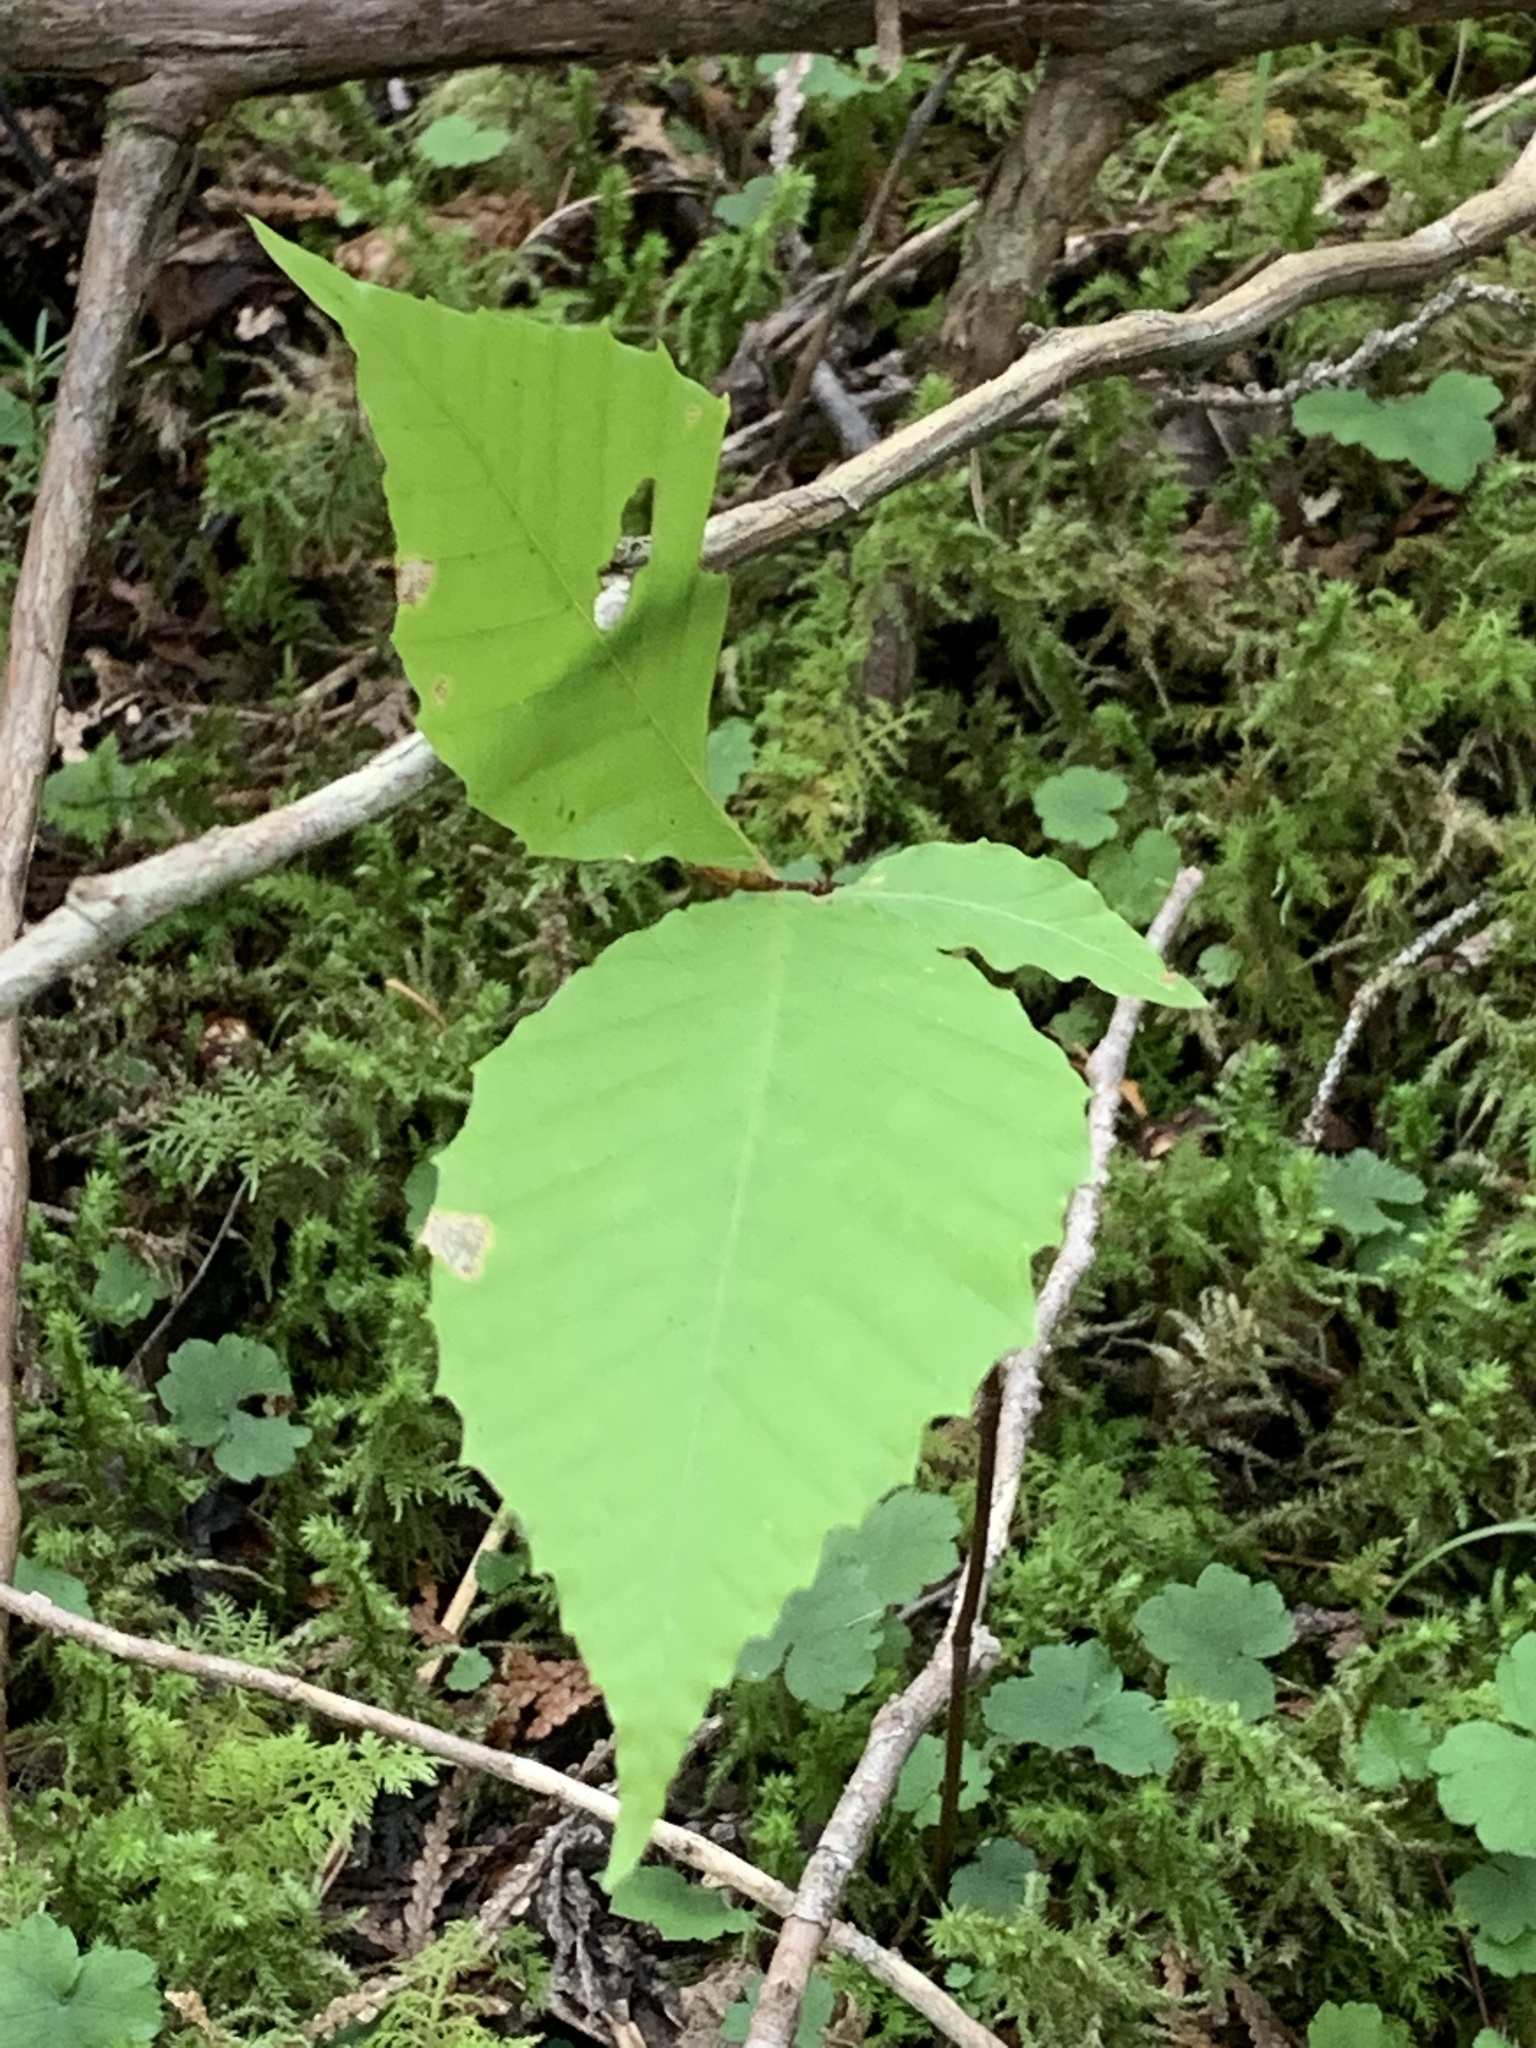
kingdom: Plantae
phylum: Tracheophyta
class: Magnoliopsida
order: Fagales
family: Fagaceae
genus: Fagus
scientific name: Fagus grandifolia
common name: American beech
